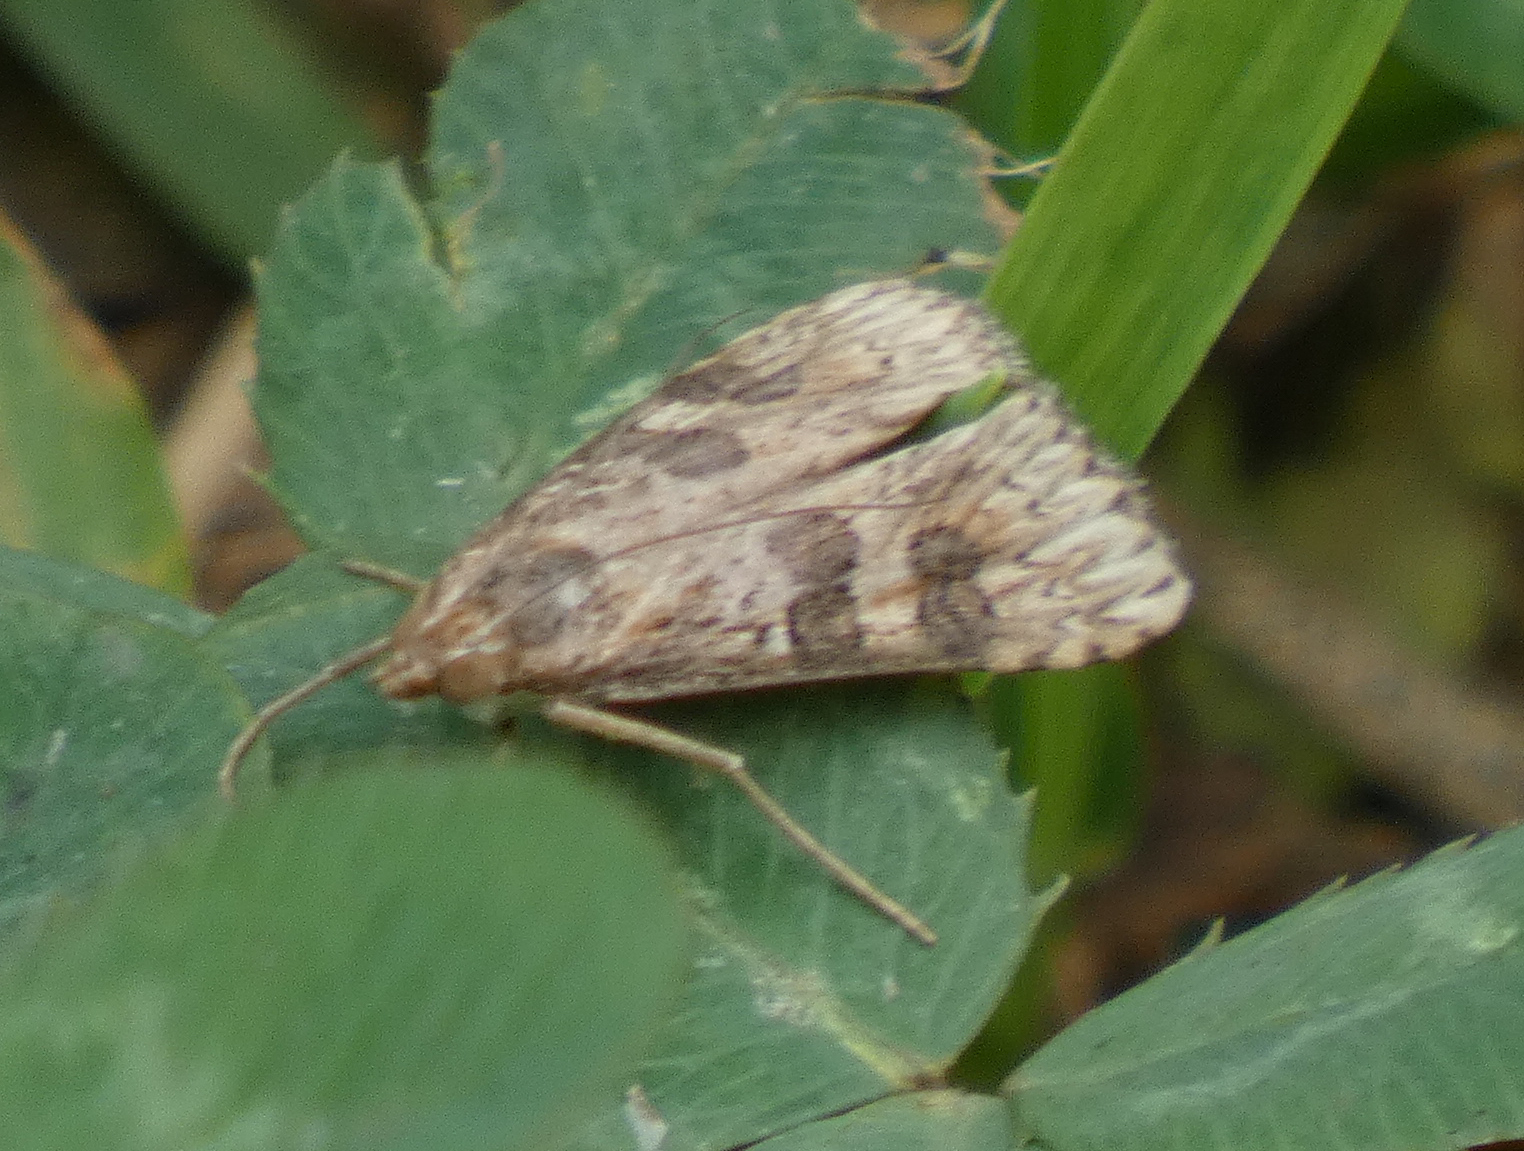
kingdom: Animalia
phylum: Arthropoda
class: Insecta
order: Lepidoptera
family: Crambidae
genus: Nomophila
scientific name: Nomophila nearctica
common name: American rush veneer
